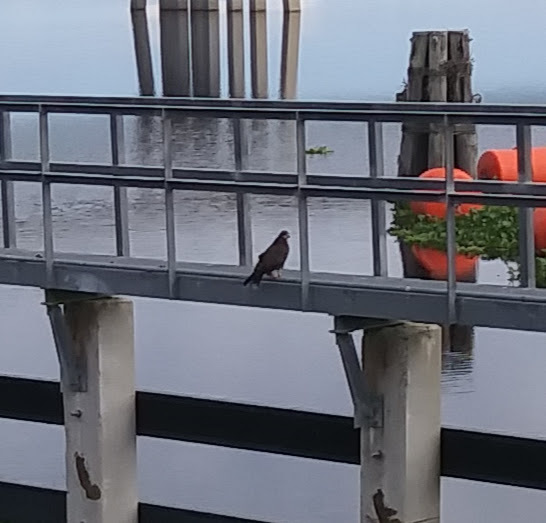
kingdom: Animalia
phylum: Chordata
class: Aves
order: Accipitriformes
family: Accipitridae
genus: Rostrhamus
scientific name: Rostrhamus sociabilis
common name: Snail kite
